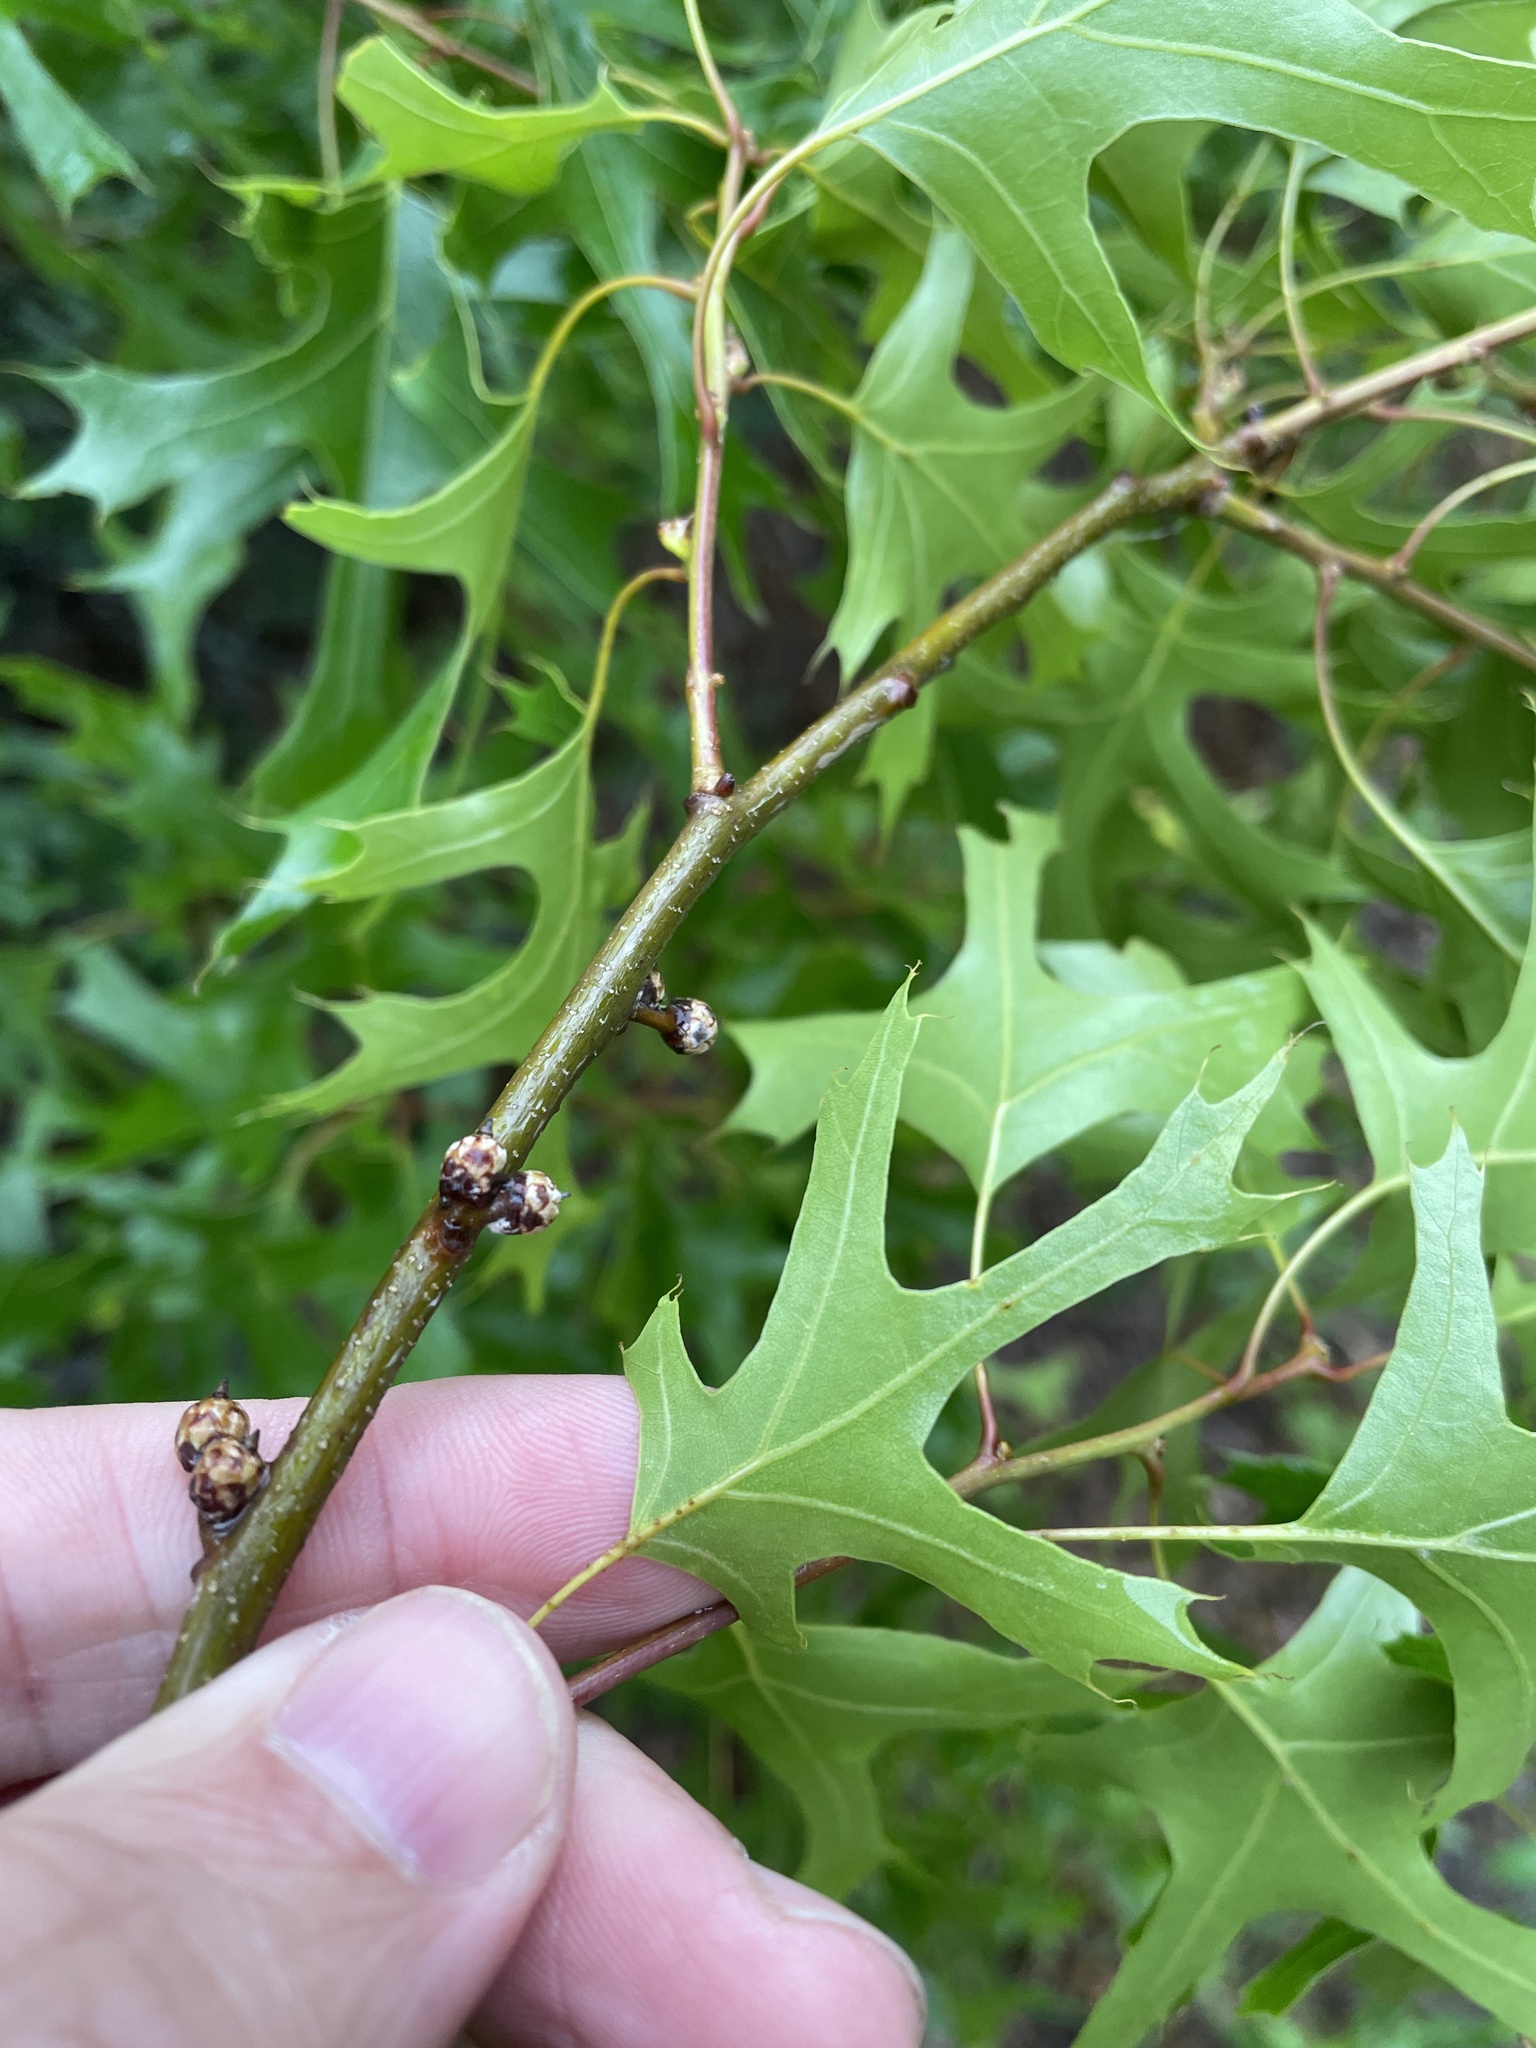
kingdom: Plantae
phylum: Tracheophyta
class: Magnoliopsida
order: Fagales
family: Fagaceae
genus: Quercus
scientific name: Quercus buckleyi
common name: Buckley oak
